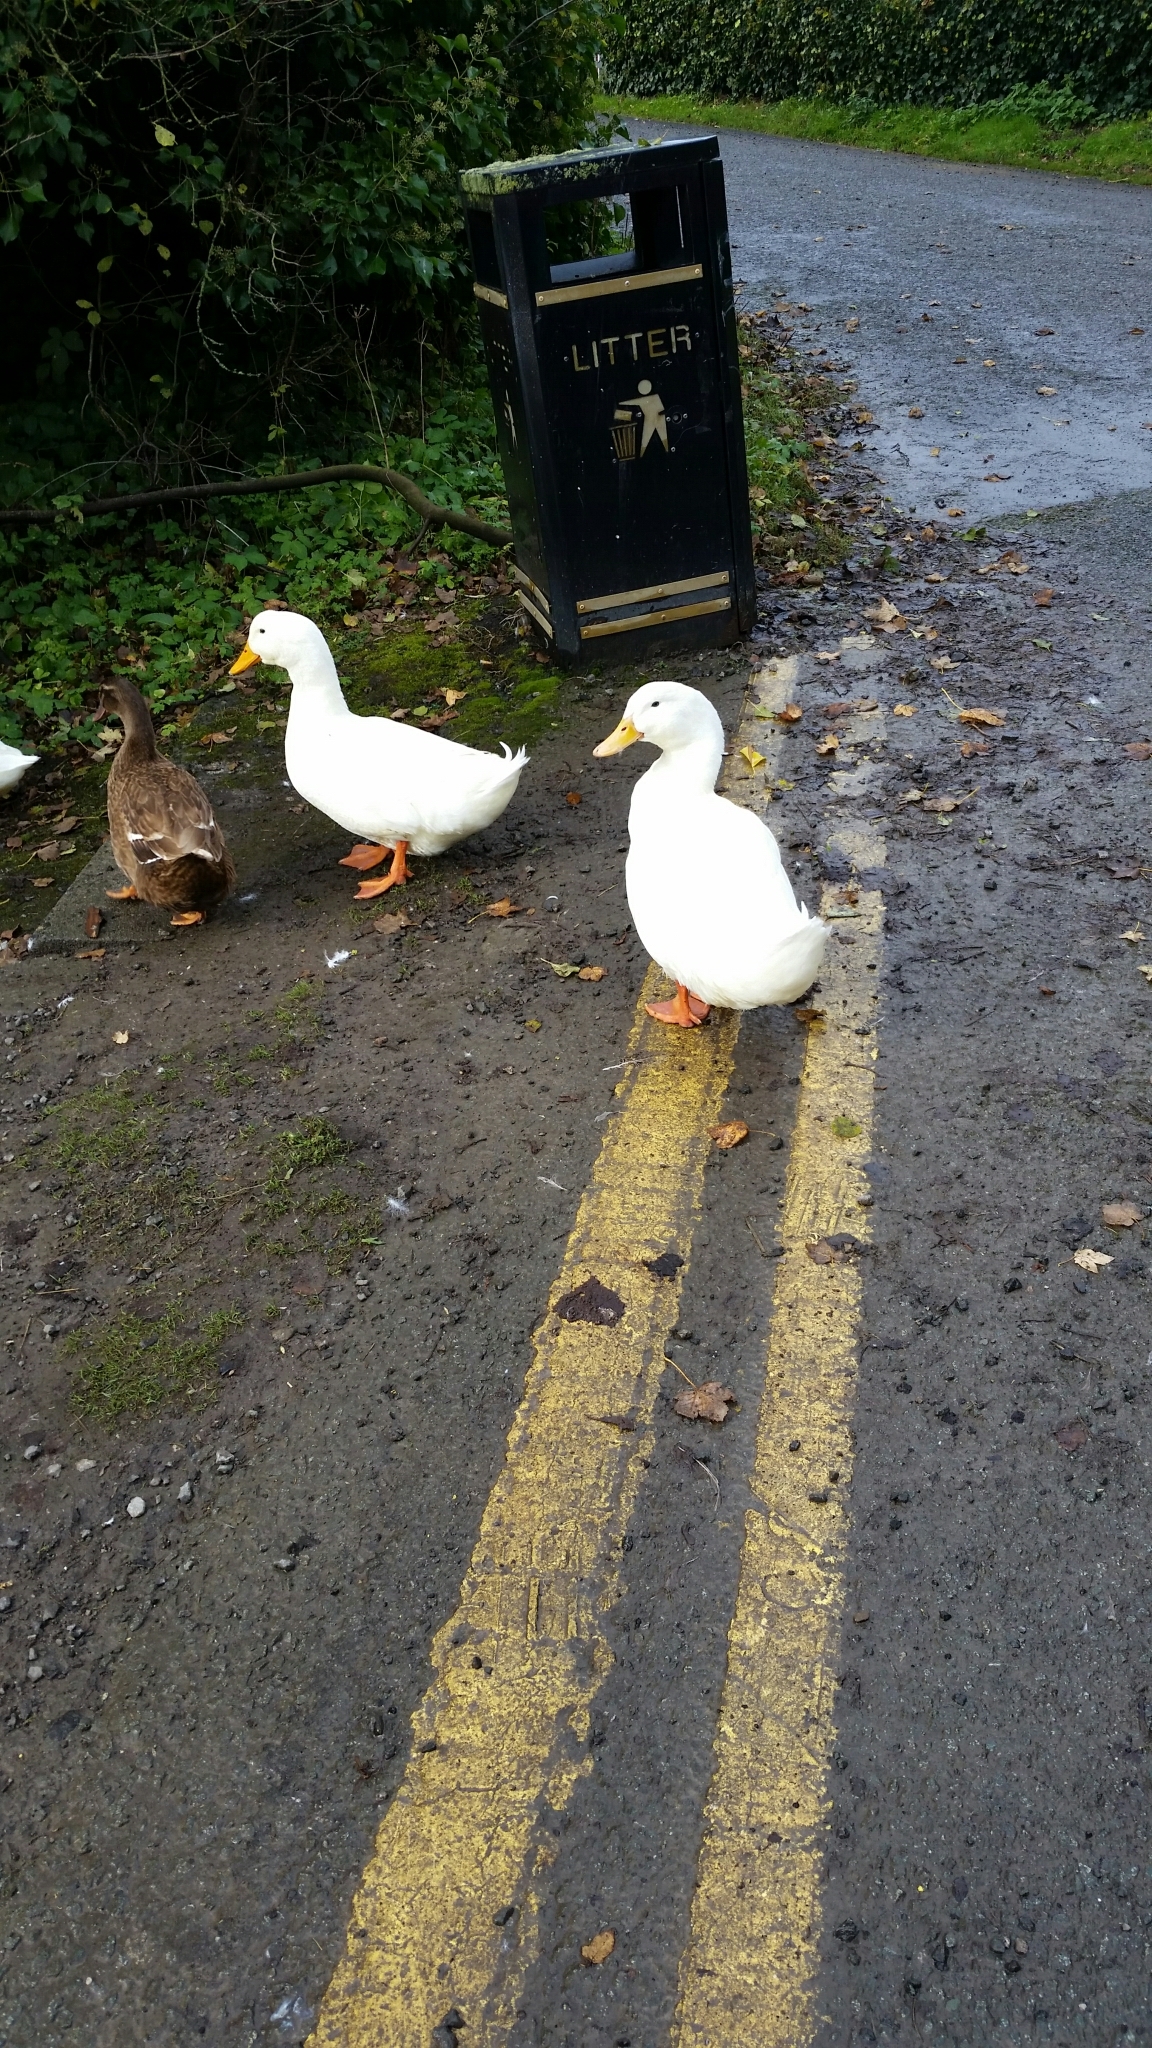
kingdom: Animalia
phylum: Chordata
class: Aves
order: Anseriformes
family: Anatidae
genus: Anas
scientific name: Anas platyrhynchos
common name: Mallard
